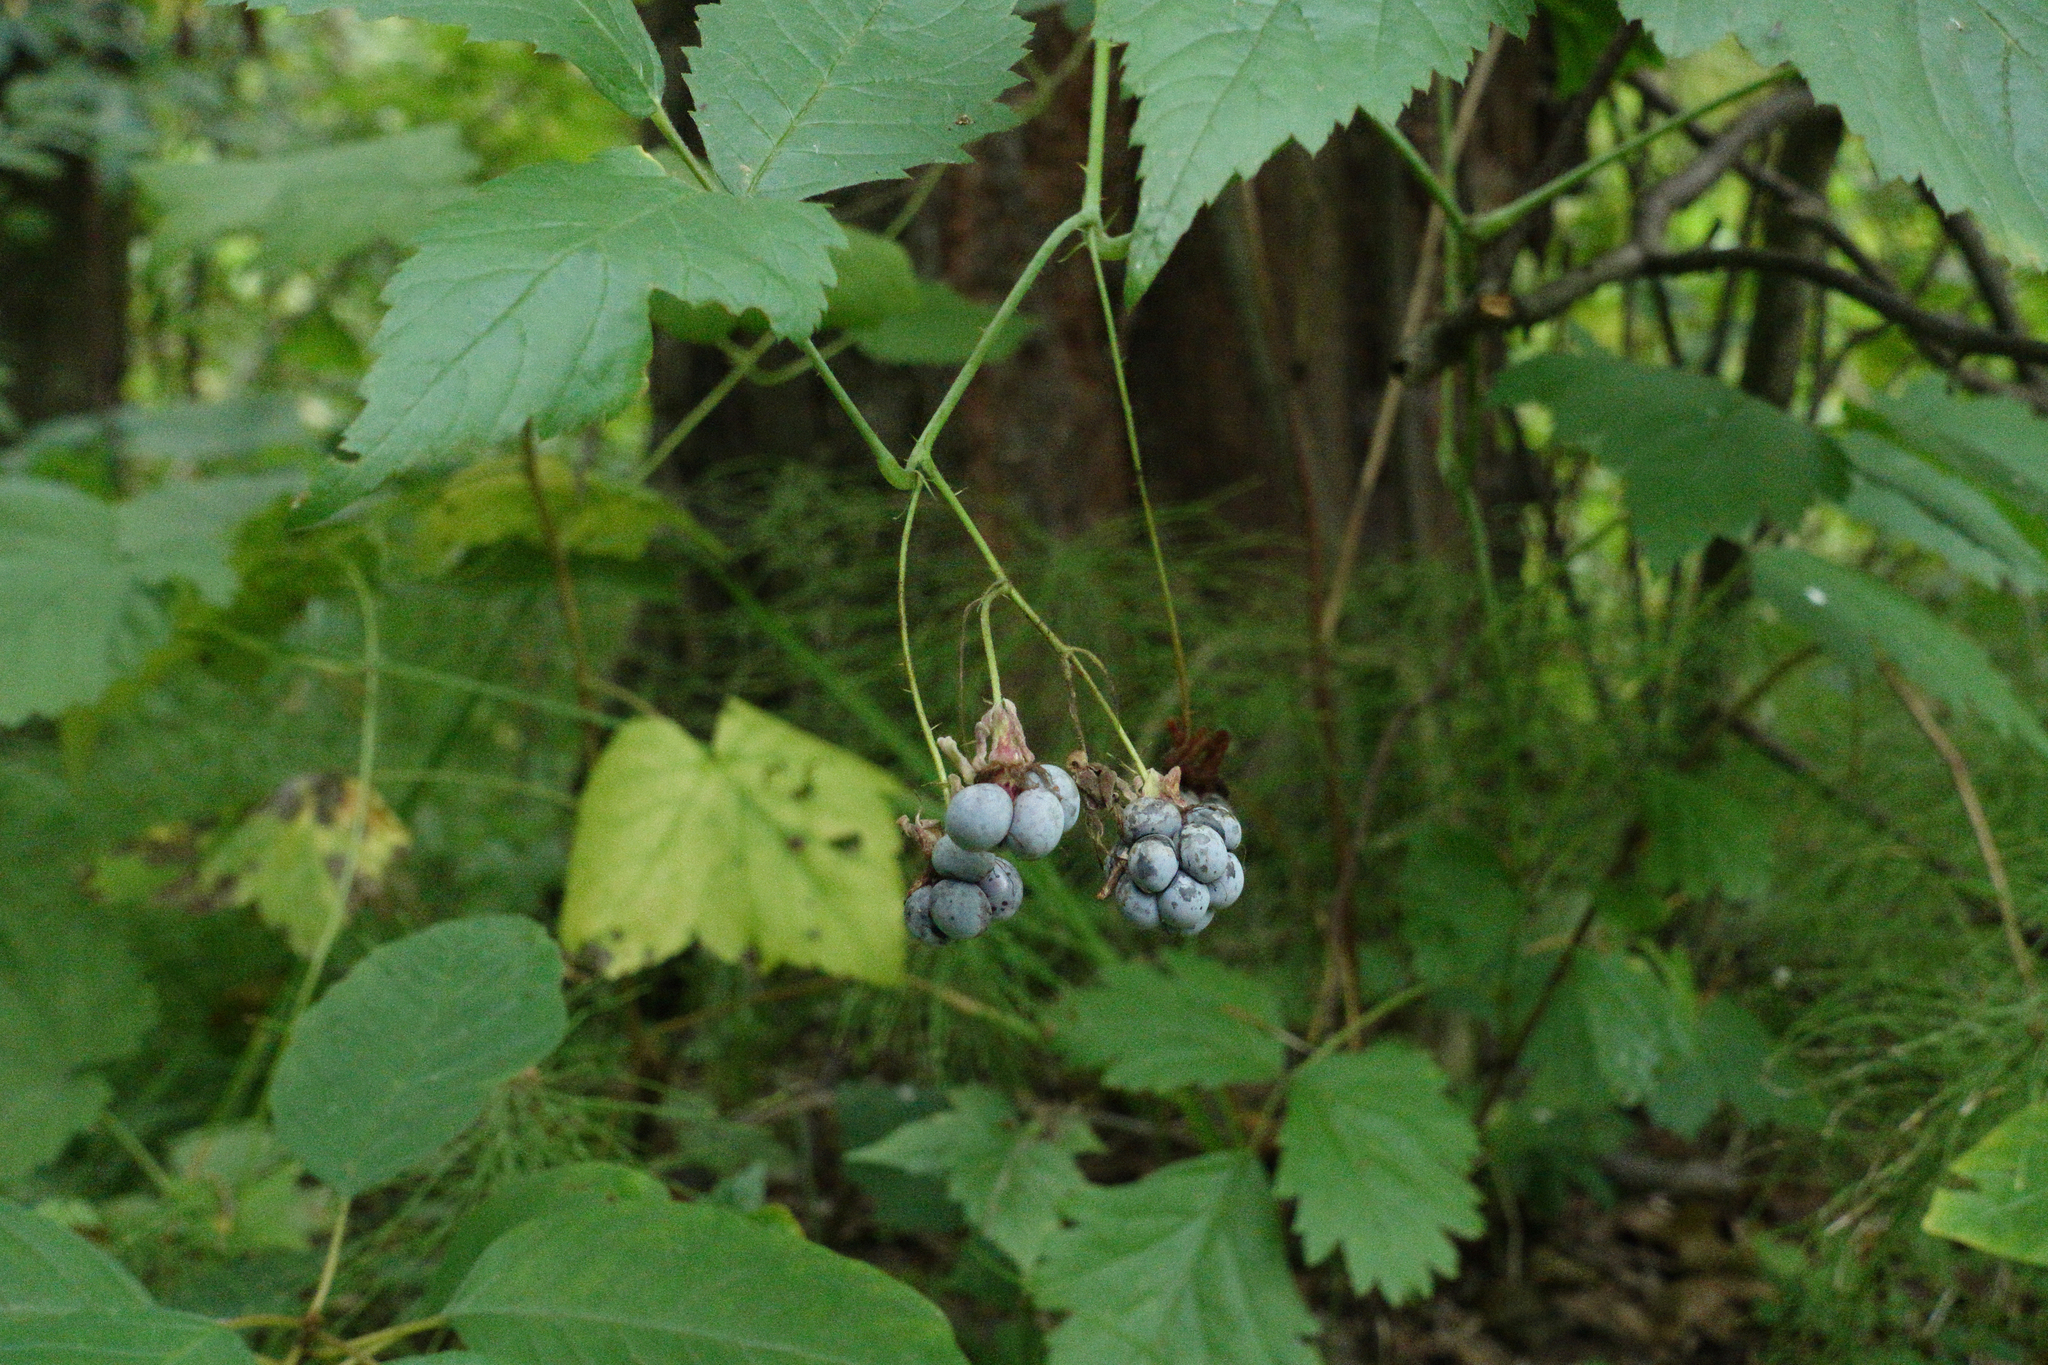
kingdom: Plantae
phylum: Tracheophyta
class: Magnoliopsida
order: Rosales
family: Rosaceae
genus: Rubus
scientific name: Rubus caesius
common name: Dewberry
